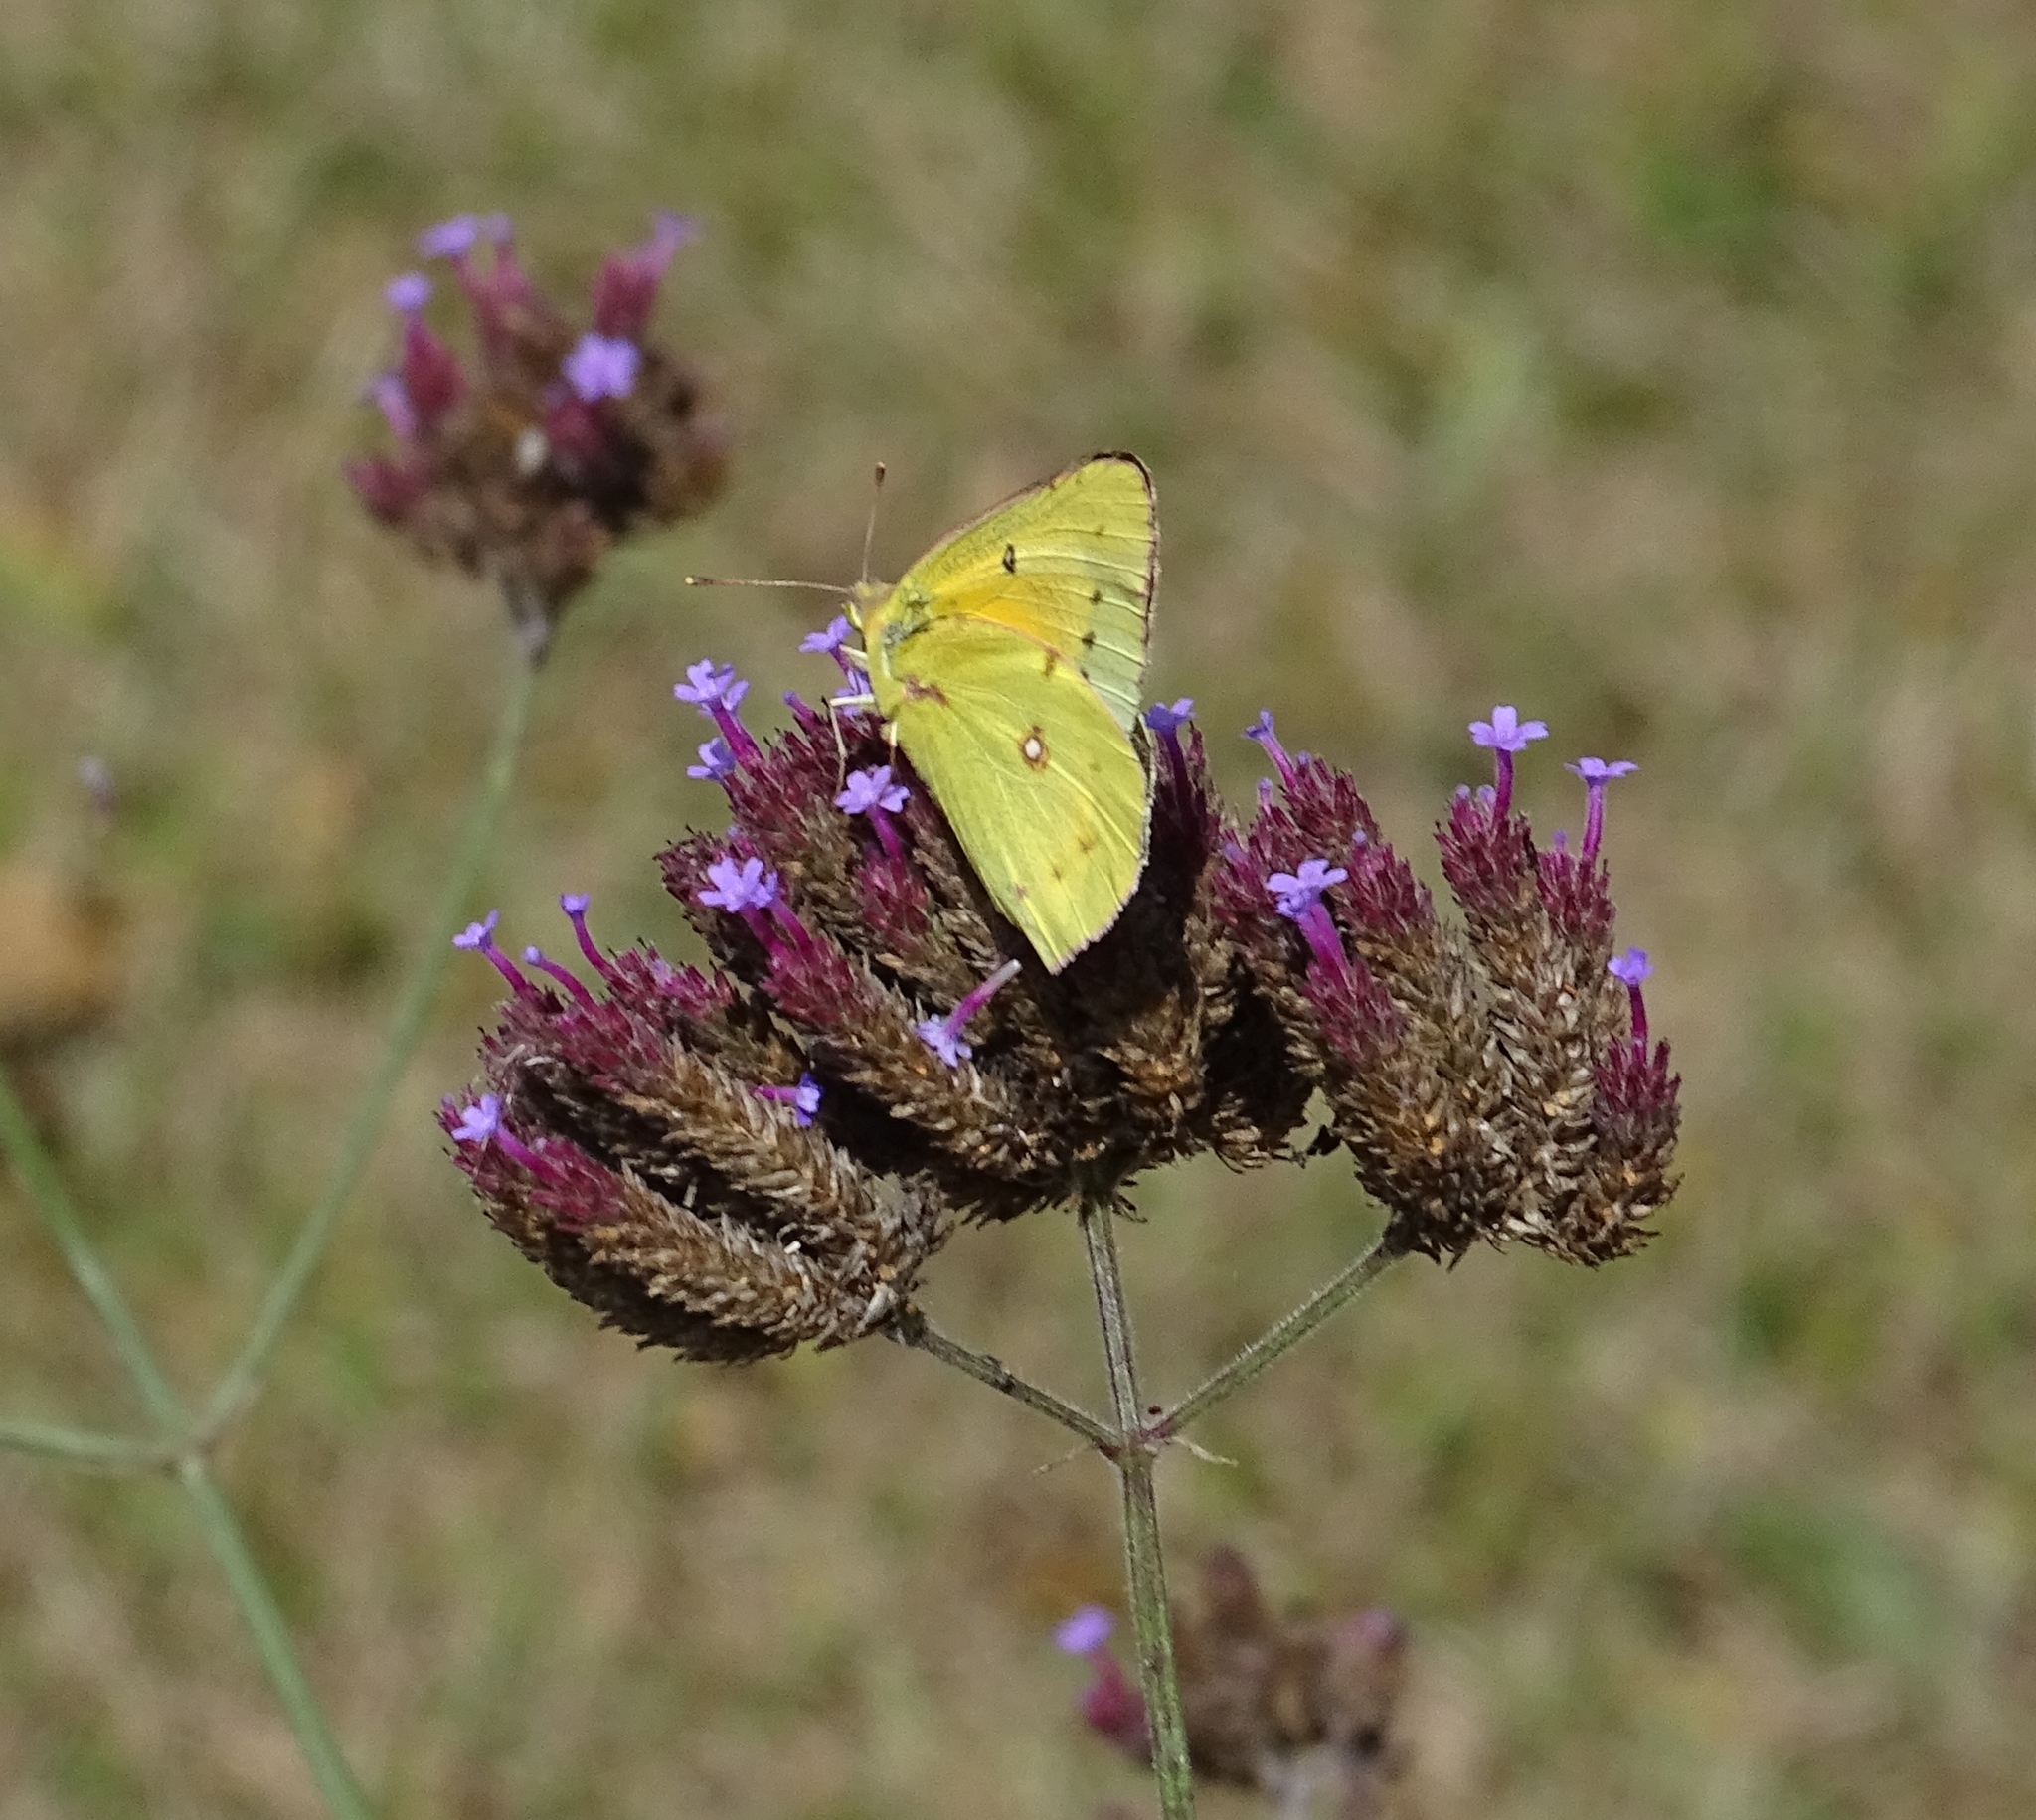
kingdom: Animalia
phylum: Arthropoda
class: Insecta
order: Lepidoptera
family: Pieridae
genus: Colias
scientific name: Colias eurytheme
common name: Alfalfa butterfly
